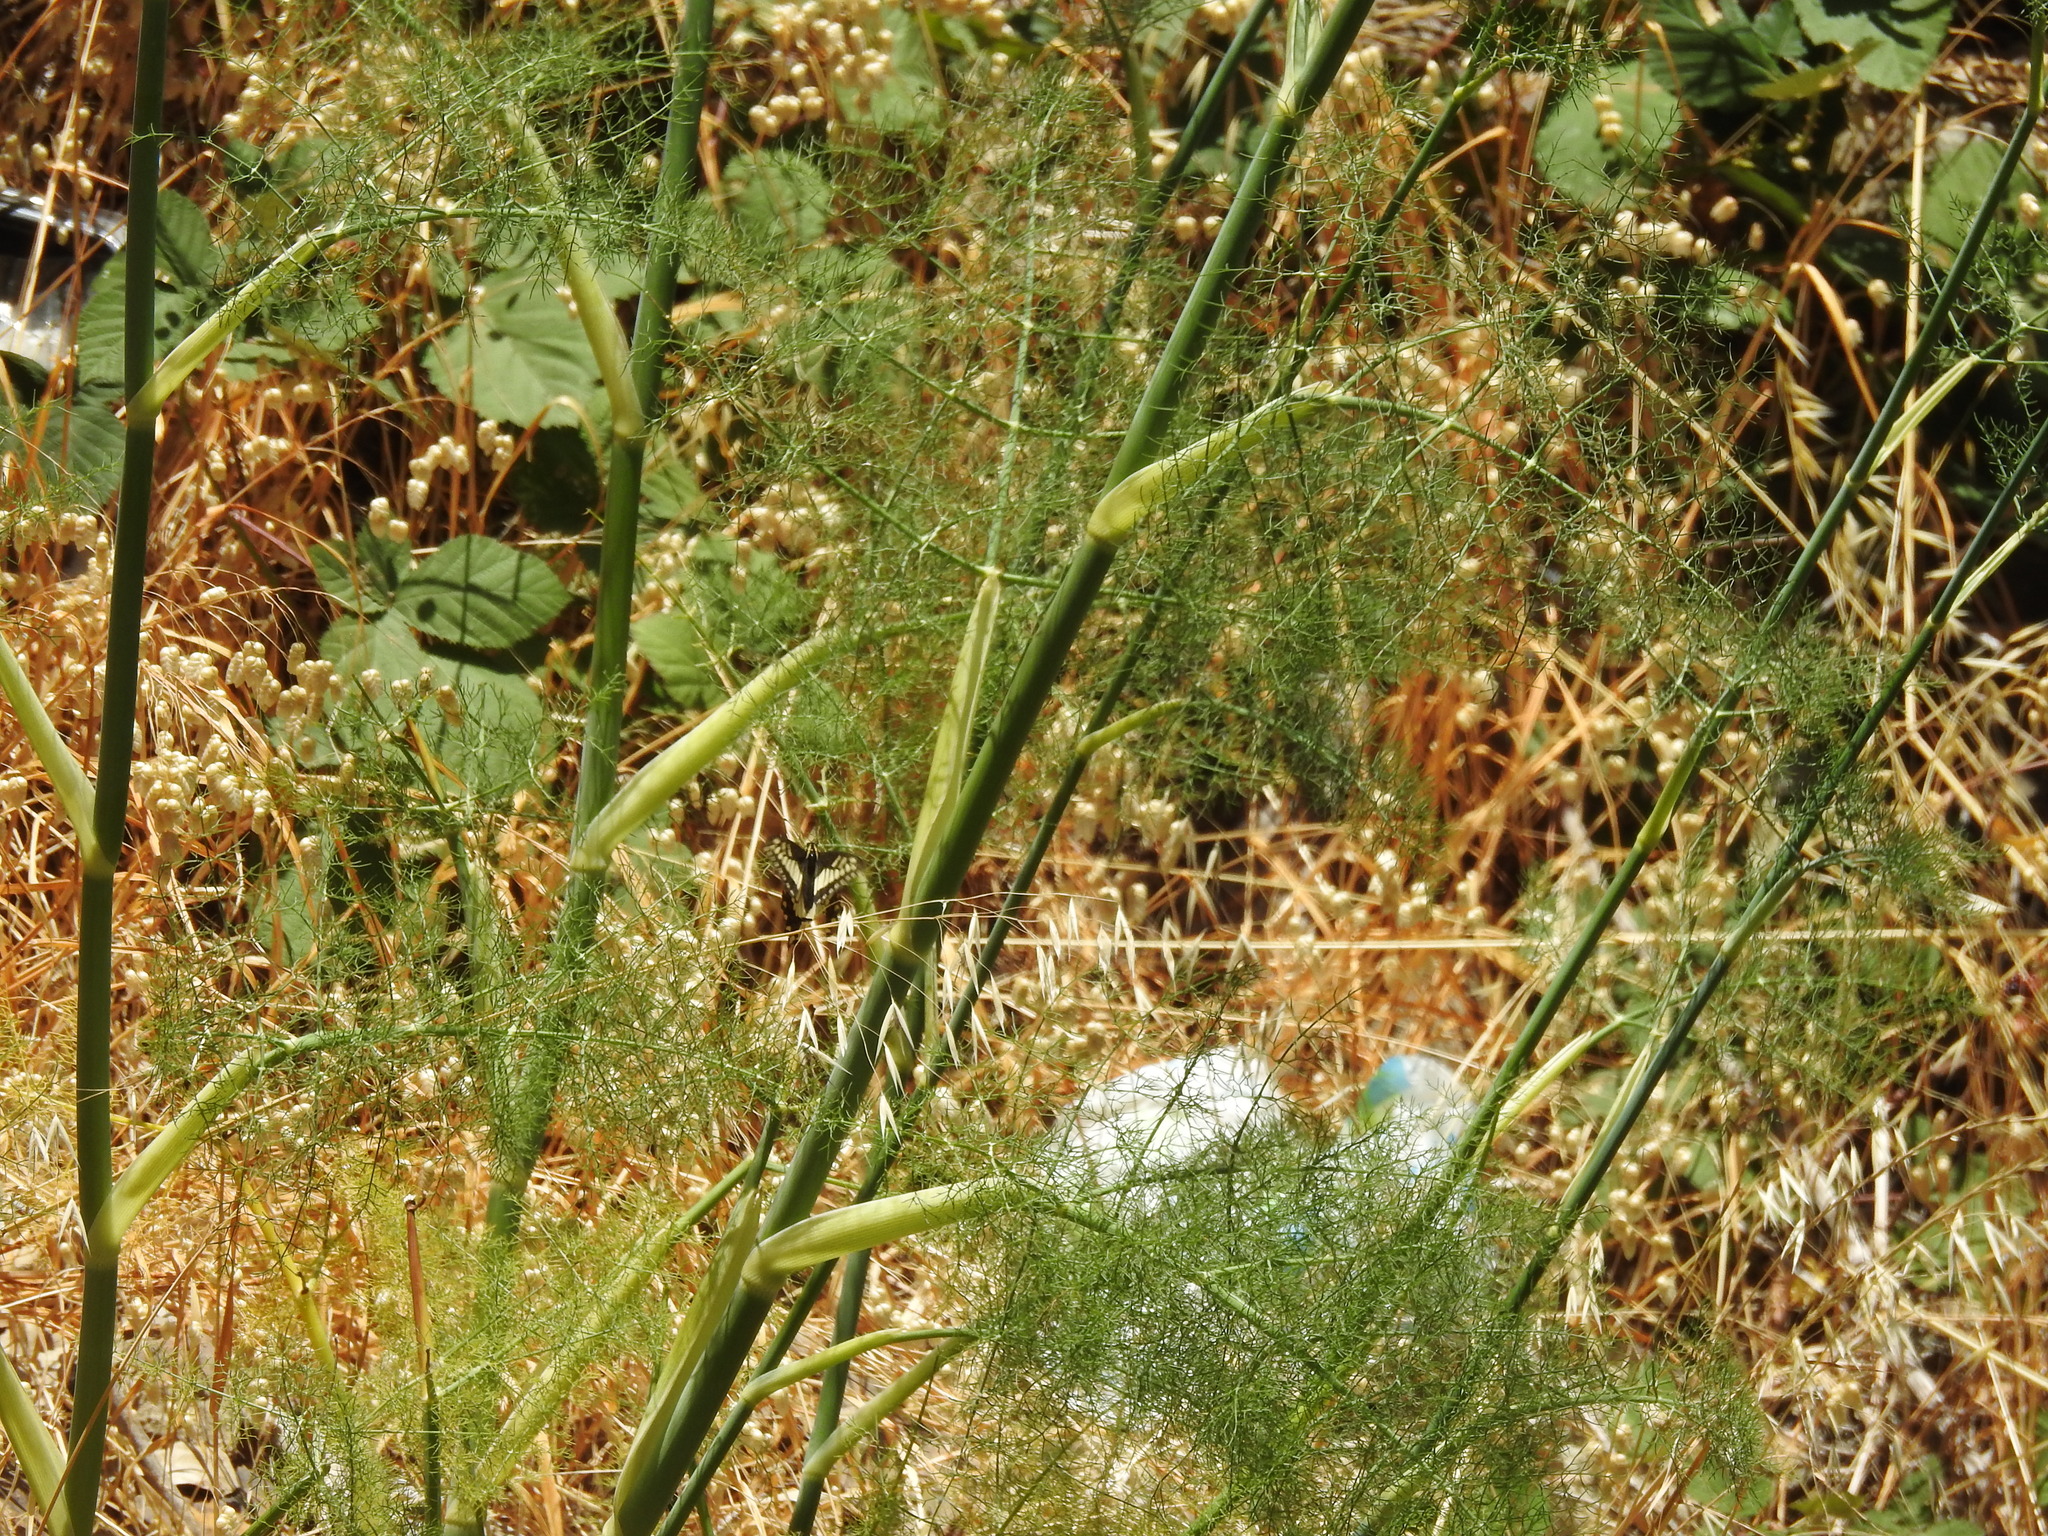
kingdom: Animalia
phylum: Arthropoda
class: Insecta
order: Lepidoptera
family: Papilionidae
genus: Papilio
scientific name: Papilio zelicaon
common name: Anise swallowtail
